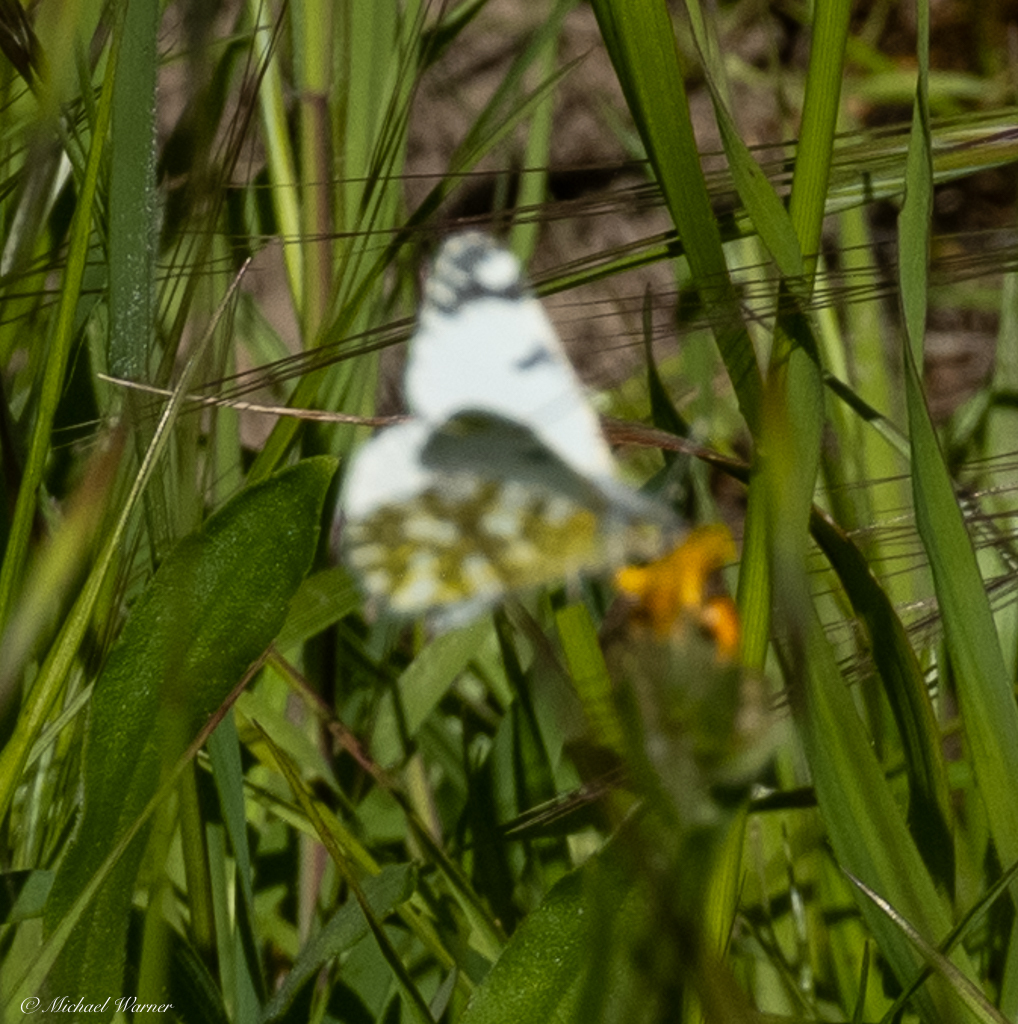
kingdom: Animalia
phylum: Arthropoda
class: Insecta
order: Lepidoptera
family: Pieridae
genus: Euchloe
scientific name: Euchloe ausonides
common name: Creamy marblewing
